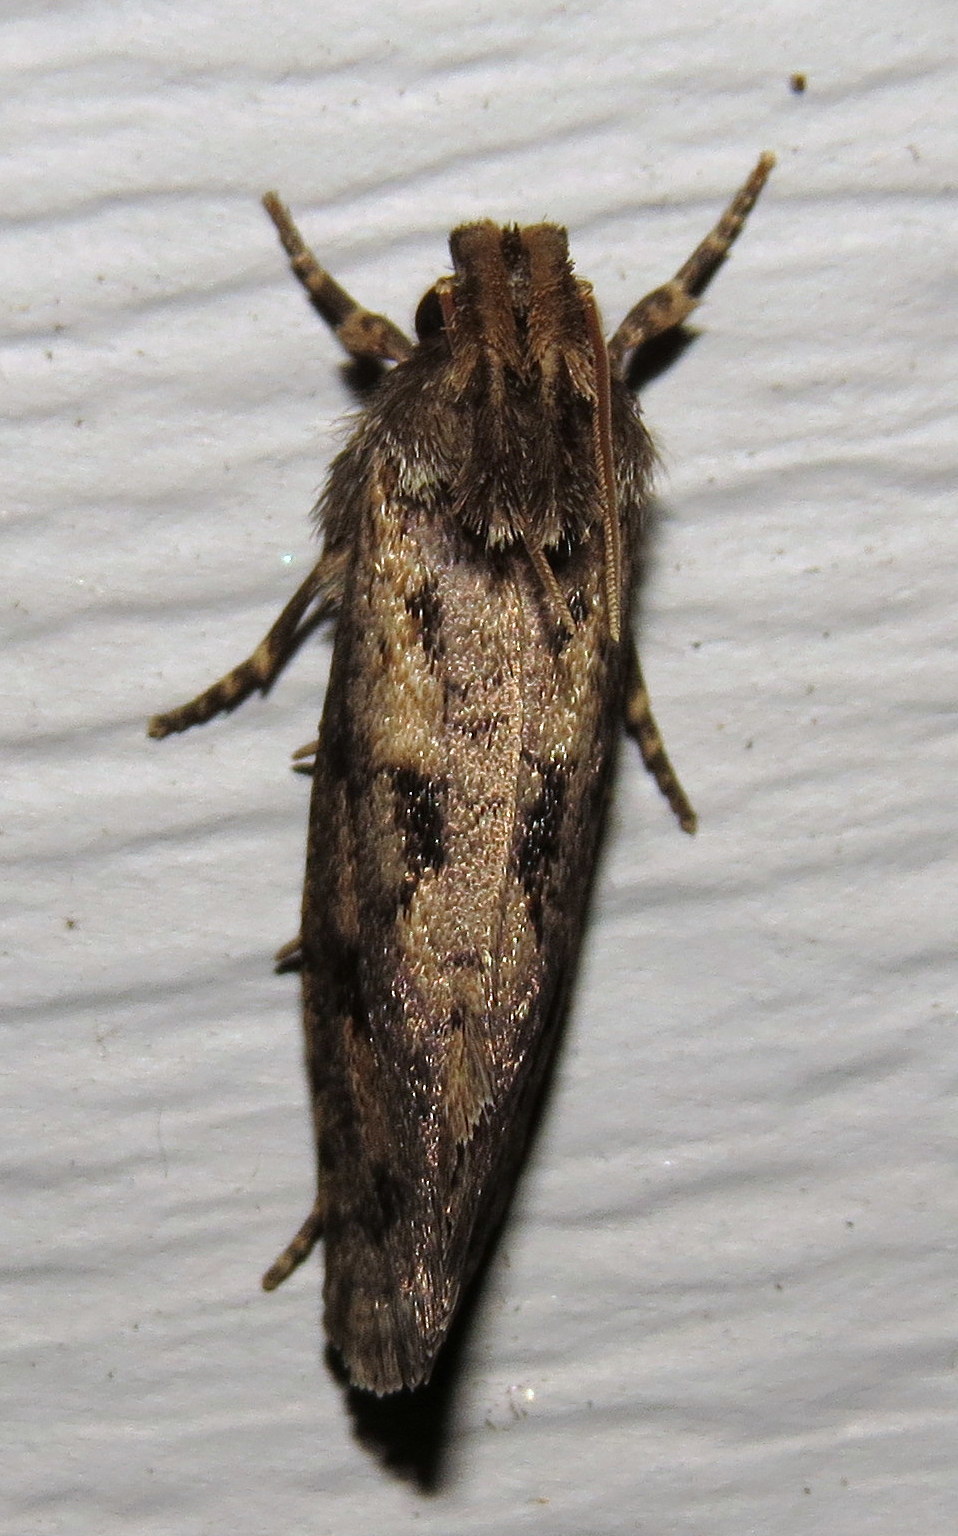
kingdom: Animalia
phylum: Arthropoda
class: Insecta
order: Lepidoptera
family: Tineidae
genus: Acrolophus
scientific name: Acrolophus popeanella
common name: Clemens' grass tubeworm moth
